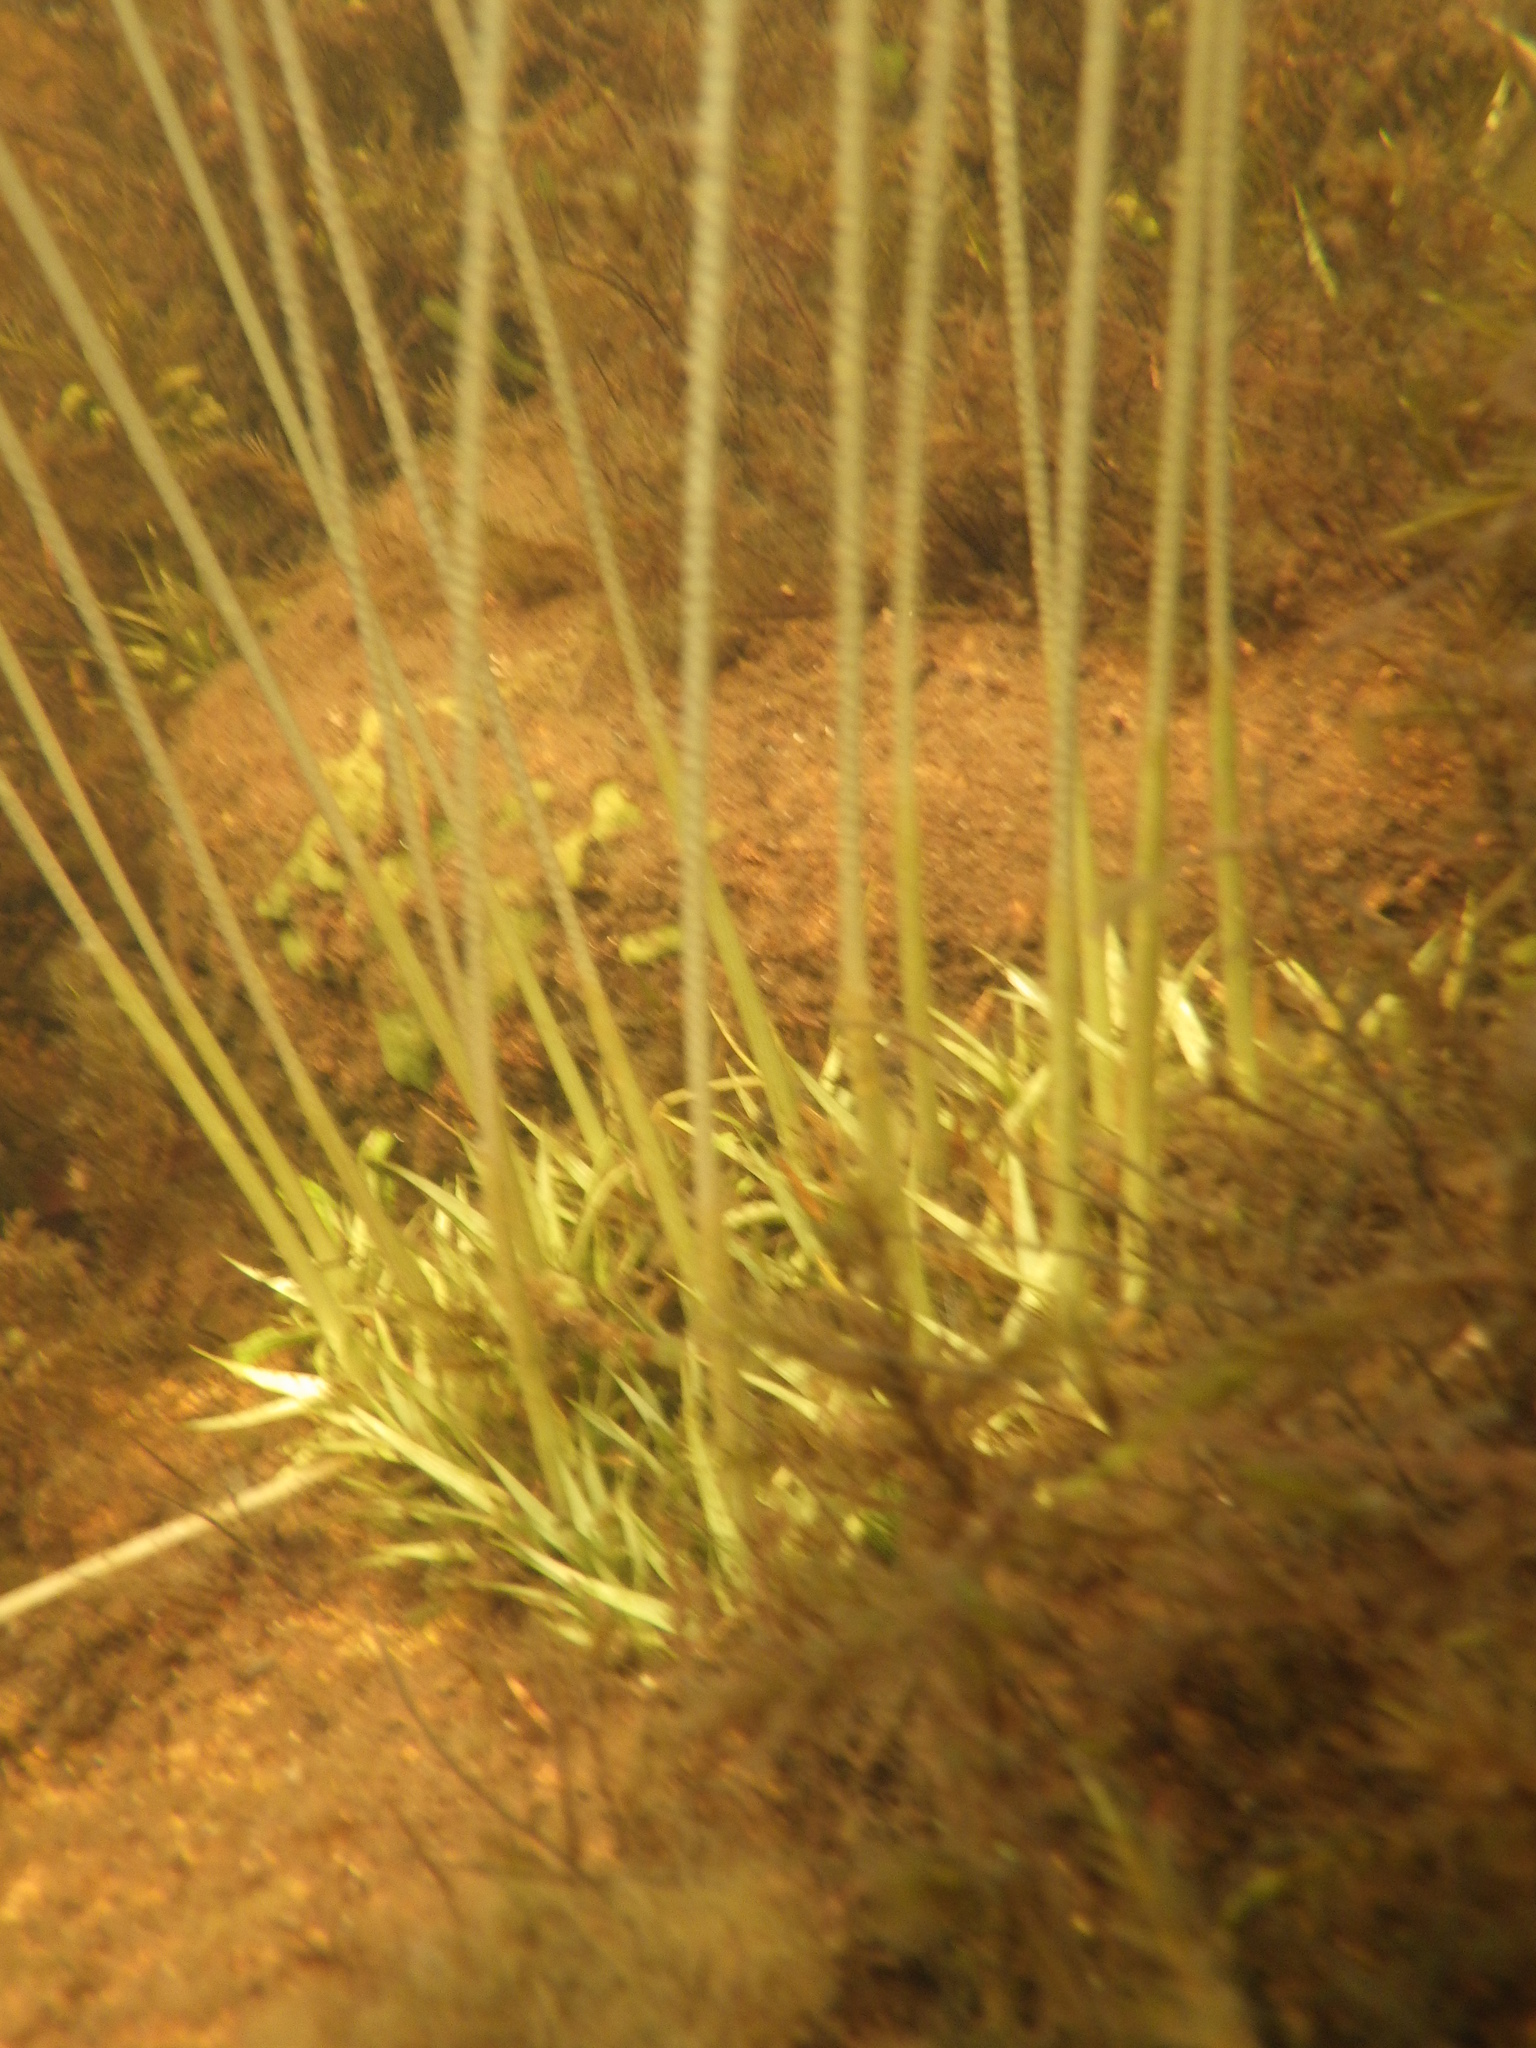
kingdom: Plantae
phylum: Tracheophyta
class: Liliopsida
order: Poales
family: Eriocaulaceae
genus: Eriocaulon
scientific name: Eriocaulon aquaticum
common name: Pipewort
